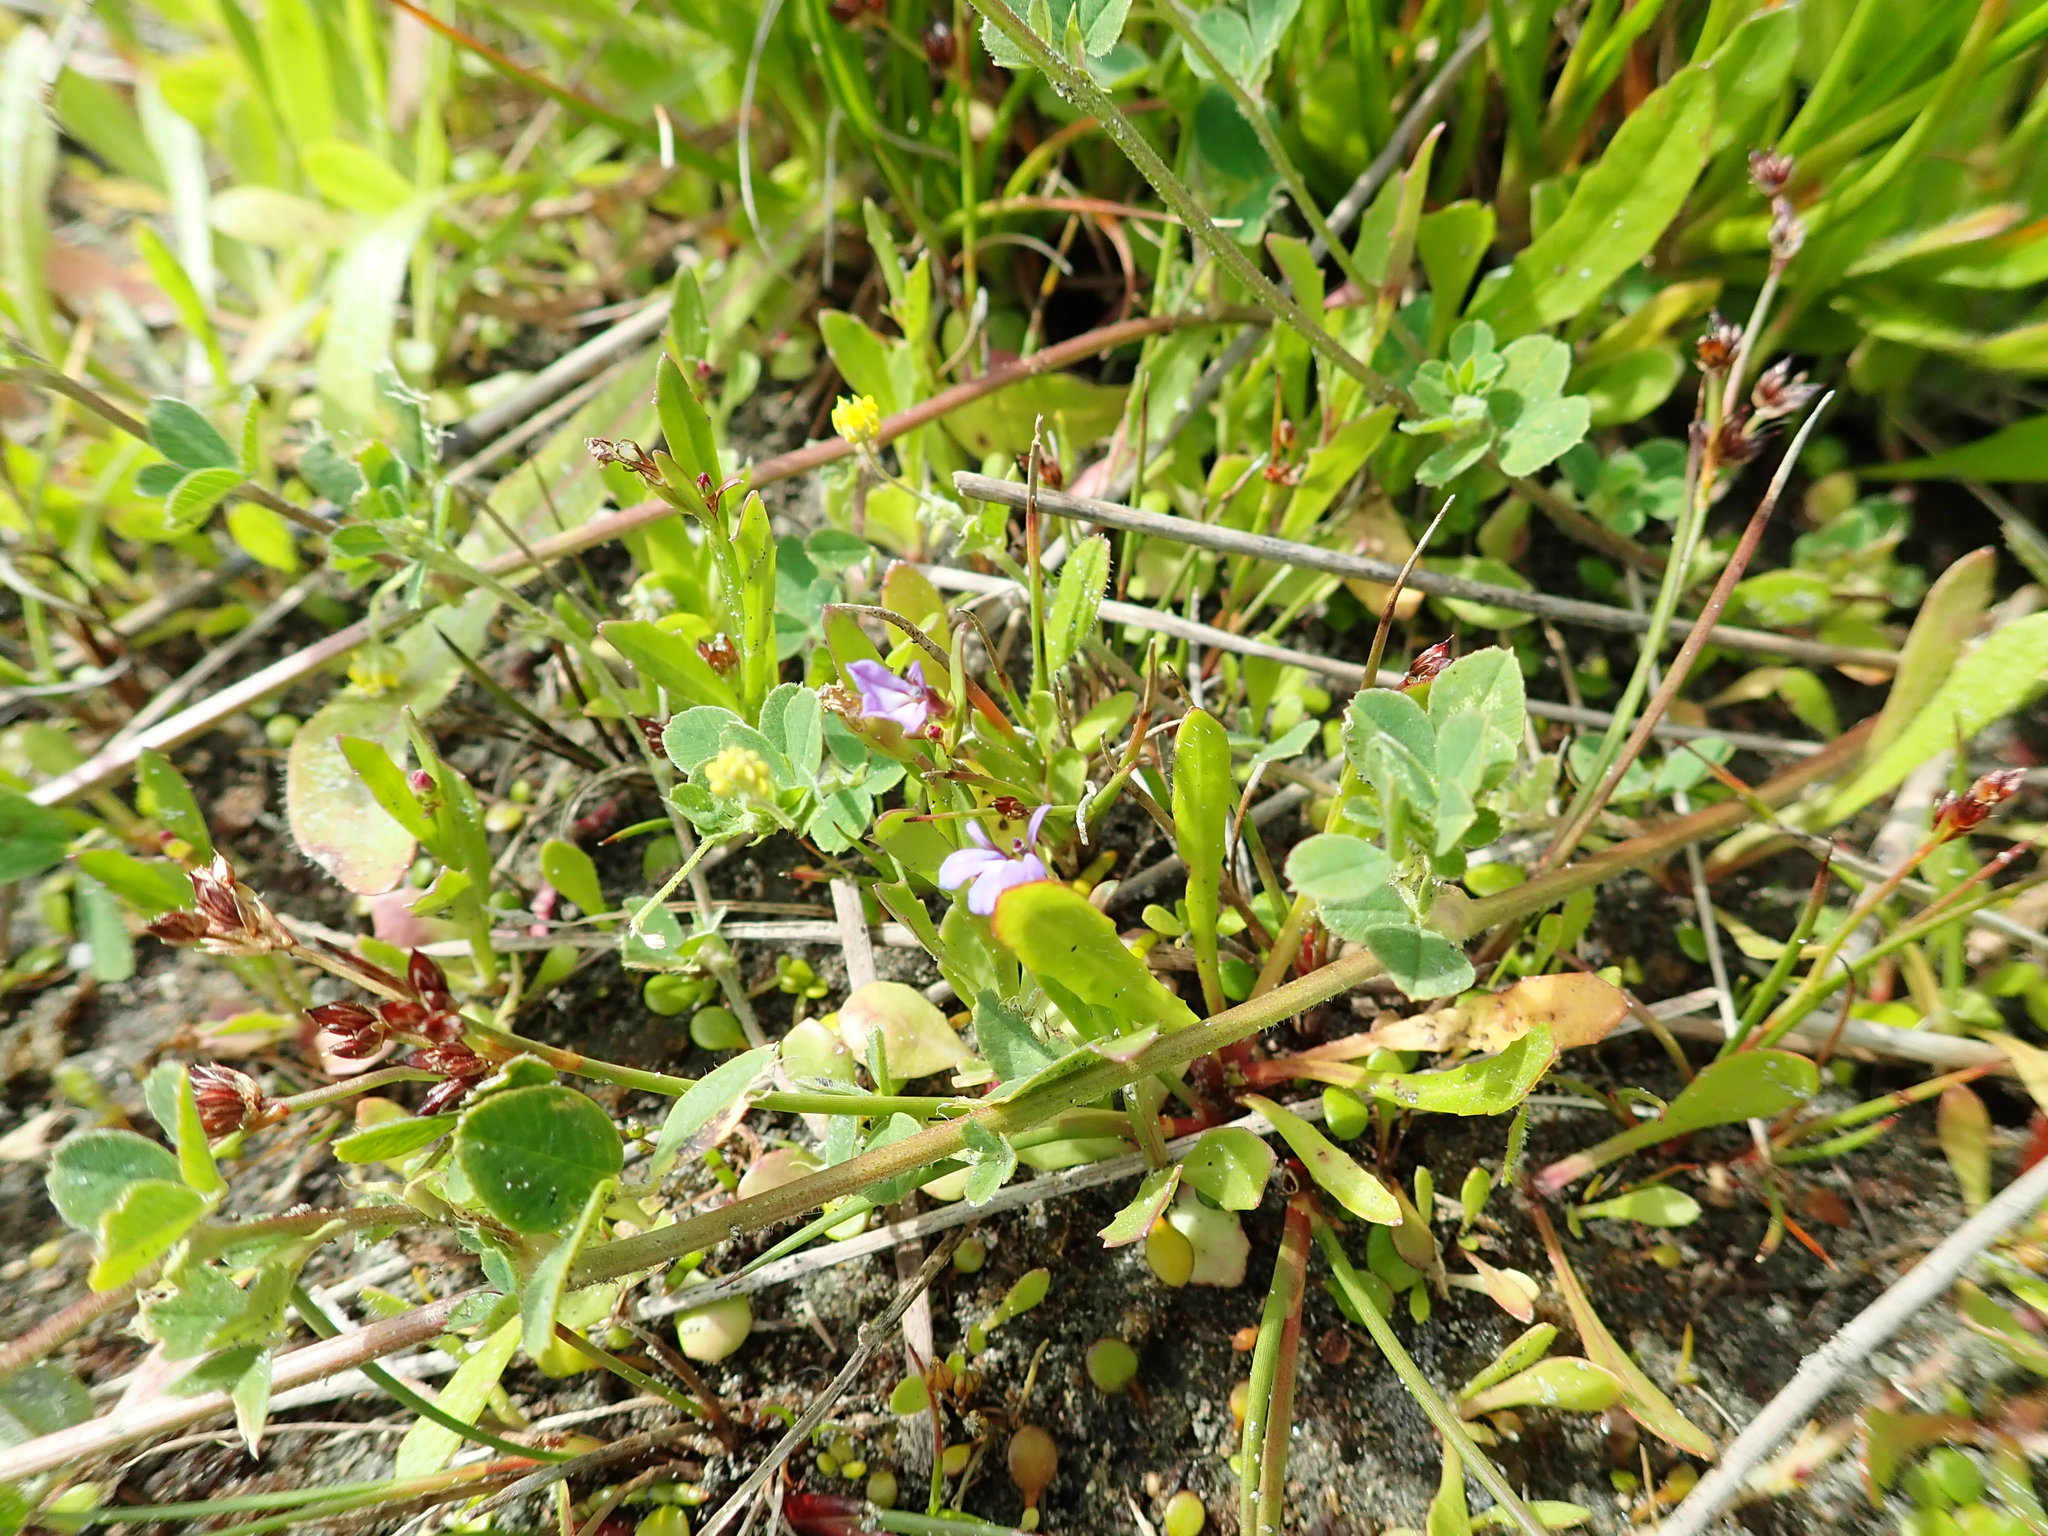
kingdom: Plantae
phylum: Tracheophyta
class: Magnoliopsida
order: Asterales
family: Campanulaceae
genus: Lobelia
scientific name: Lobelia anceps
